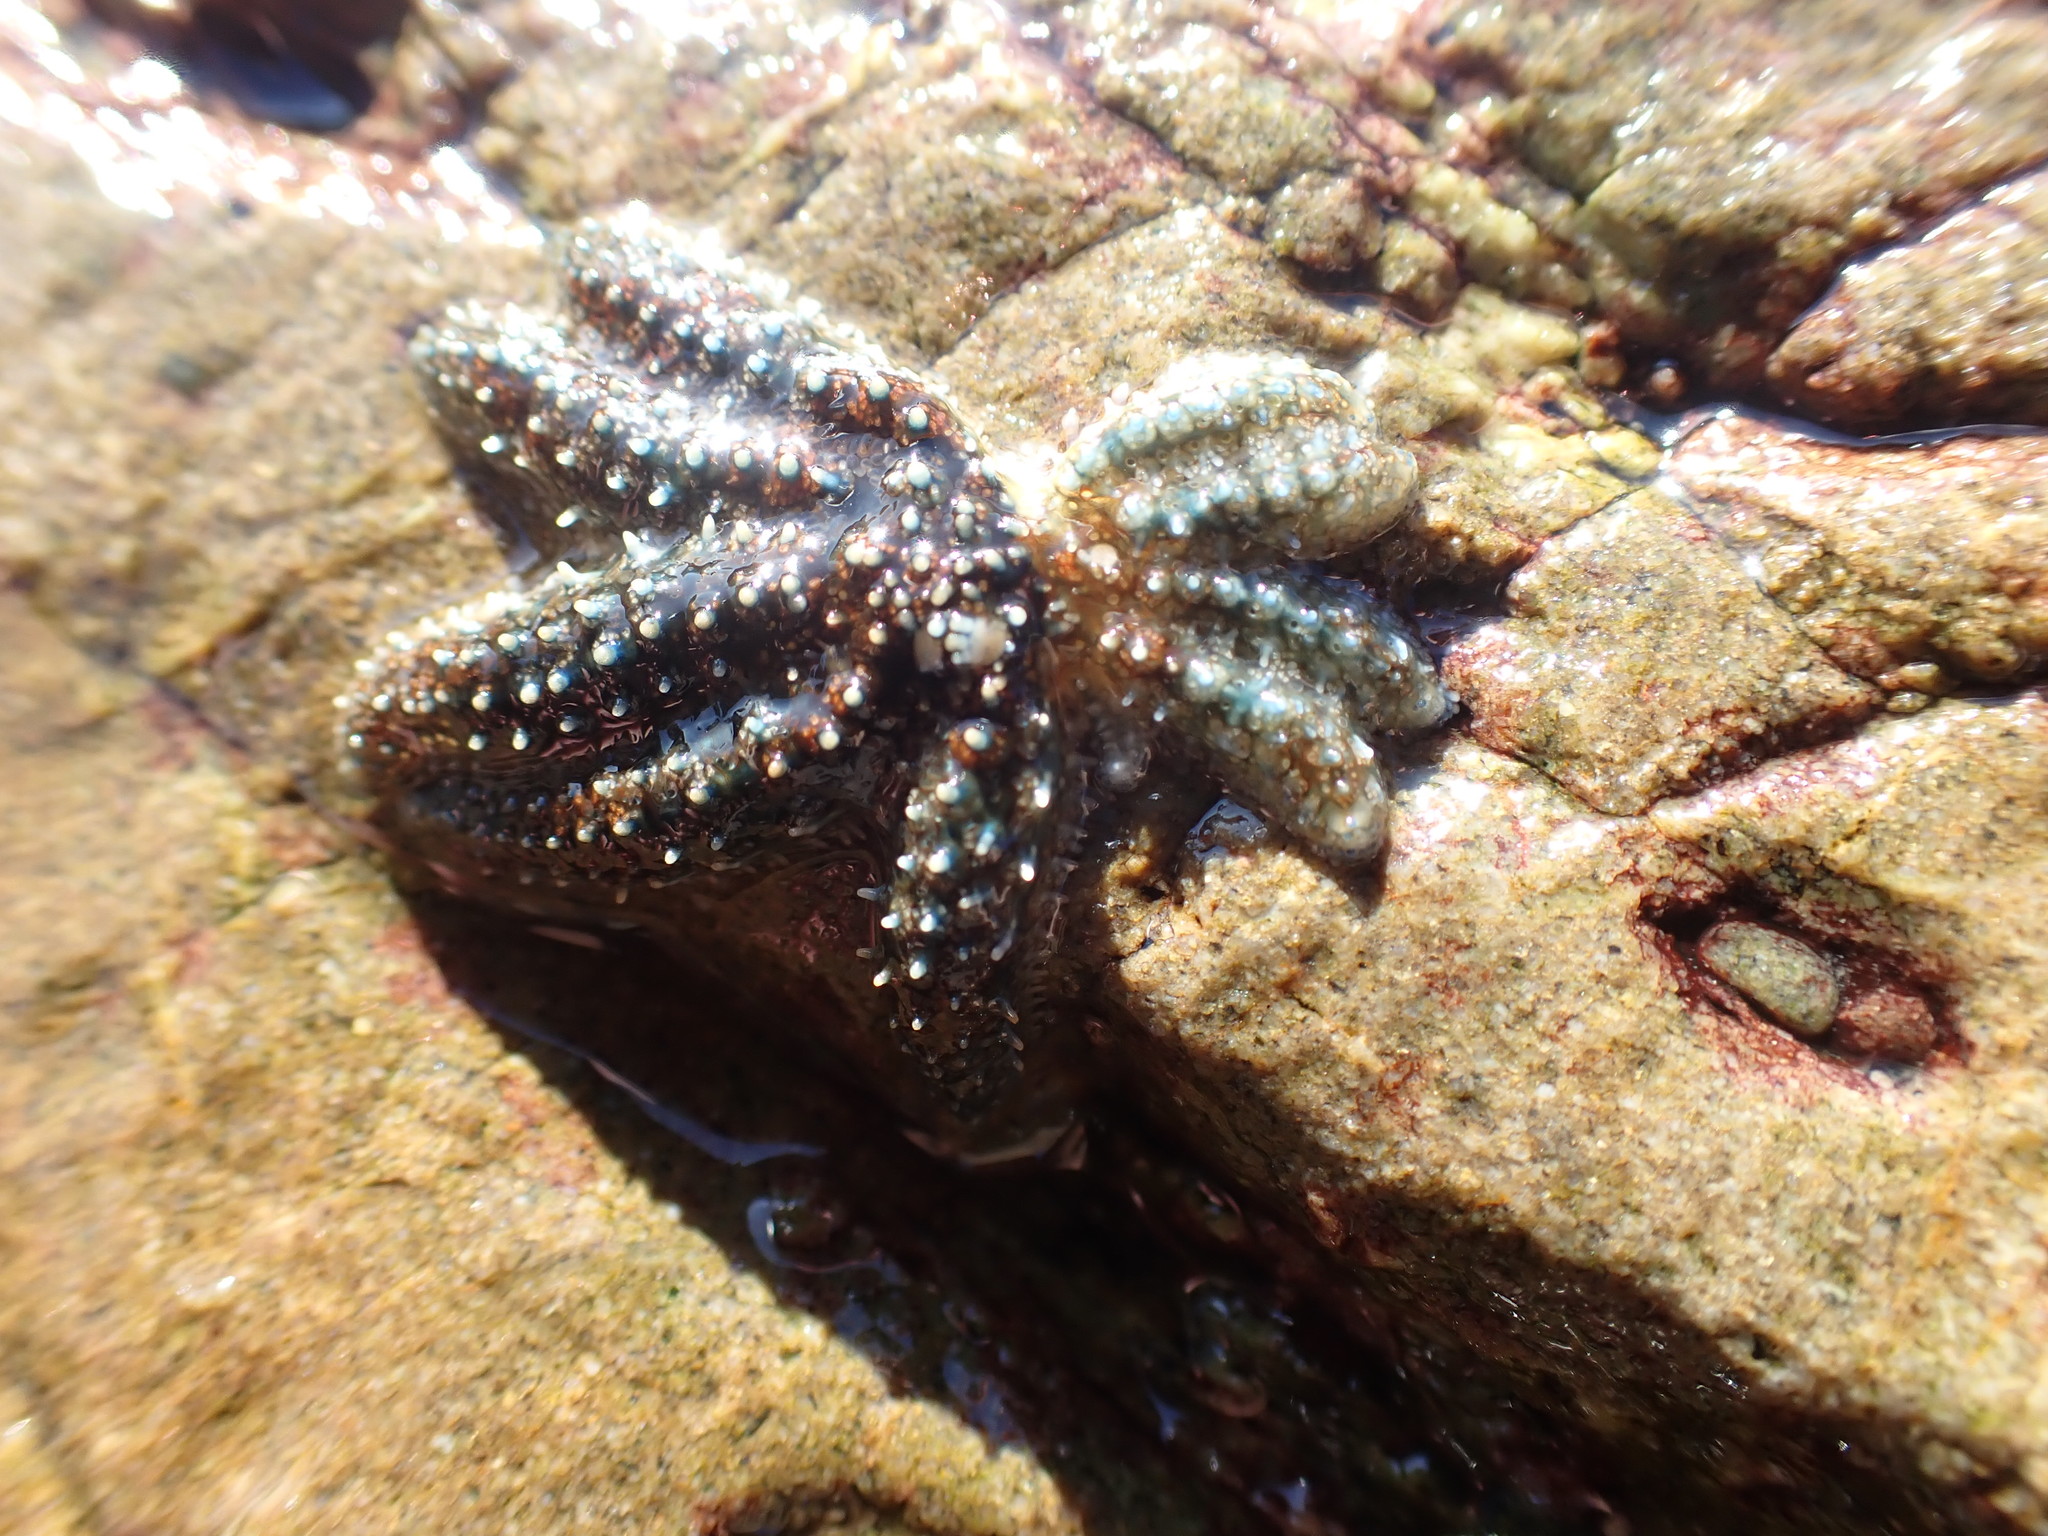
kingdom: Animalia
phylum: Echinodermata
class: Asteroidea
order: Forcipulatida
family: Asteriidae
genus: Coscinasterias
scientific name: Coscinasterias muricata
